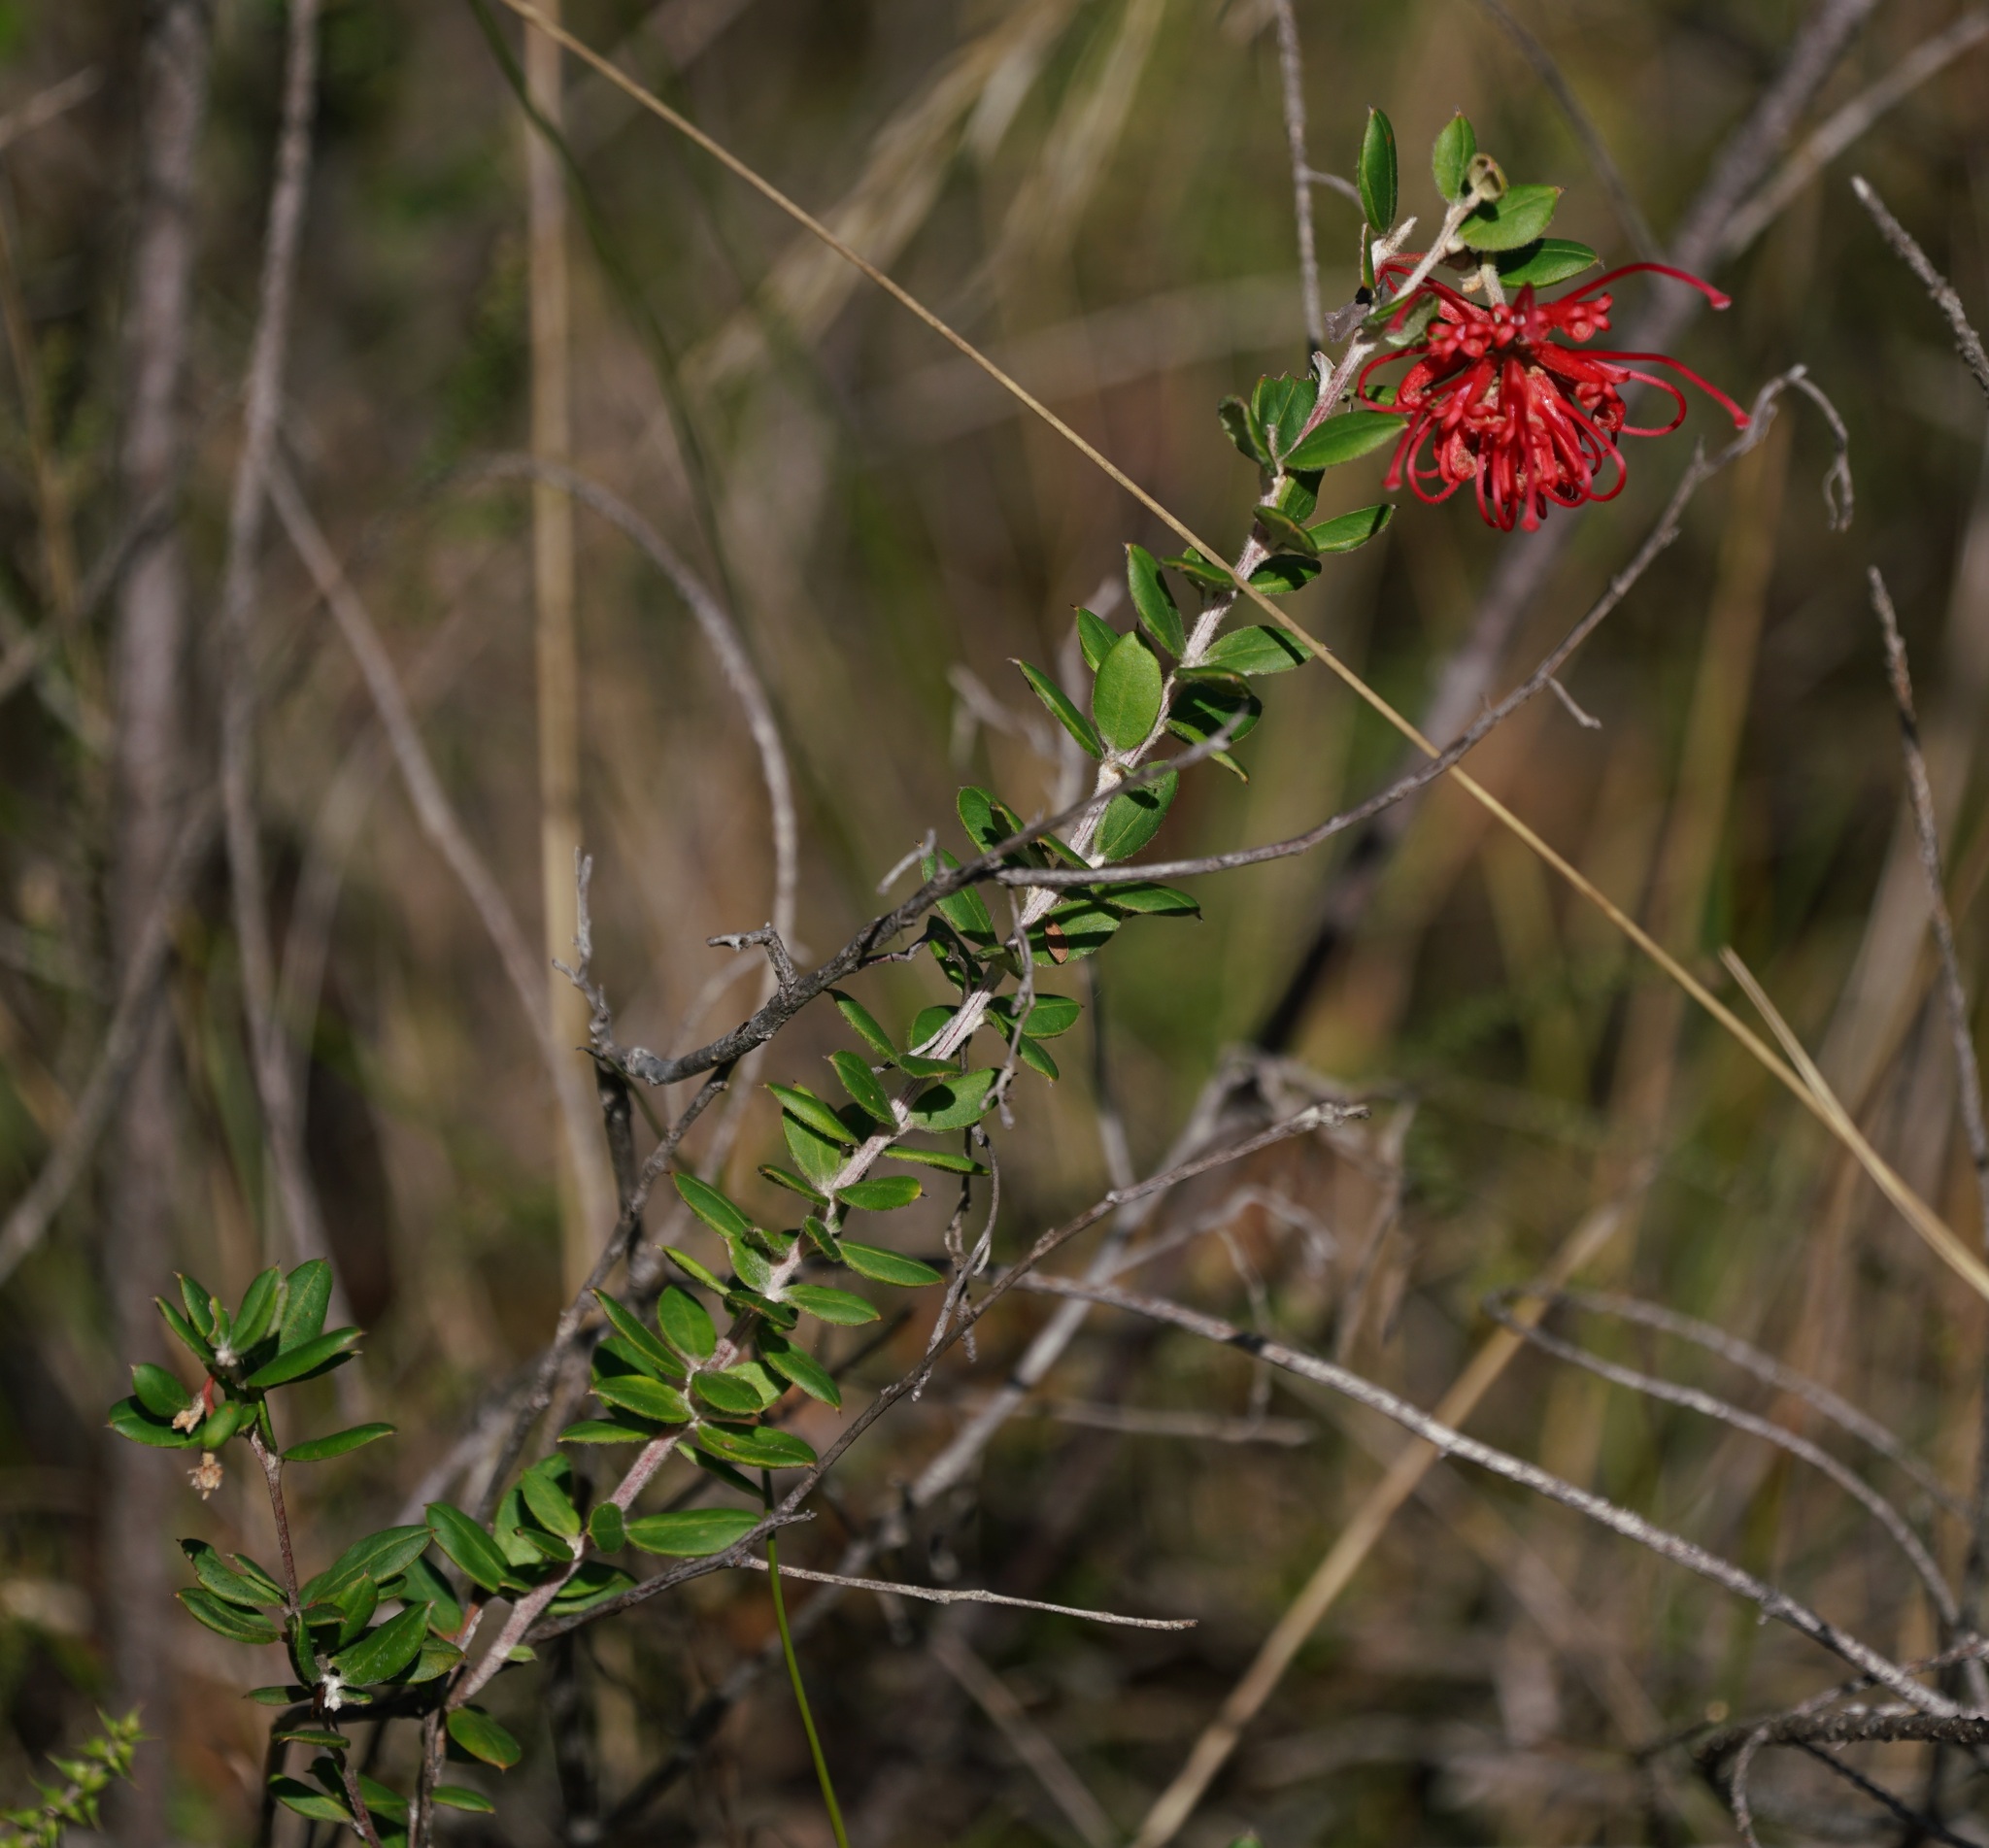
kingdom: Plantae
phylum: Tracheophyta
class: Magnoliopsida
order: Proteales
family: Proteaceae
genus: Grevillea
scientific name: Grevillea speciosa
